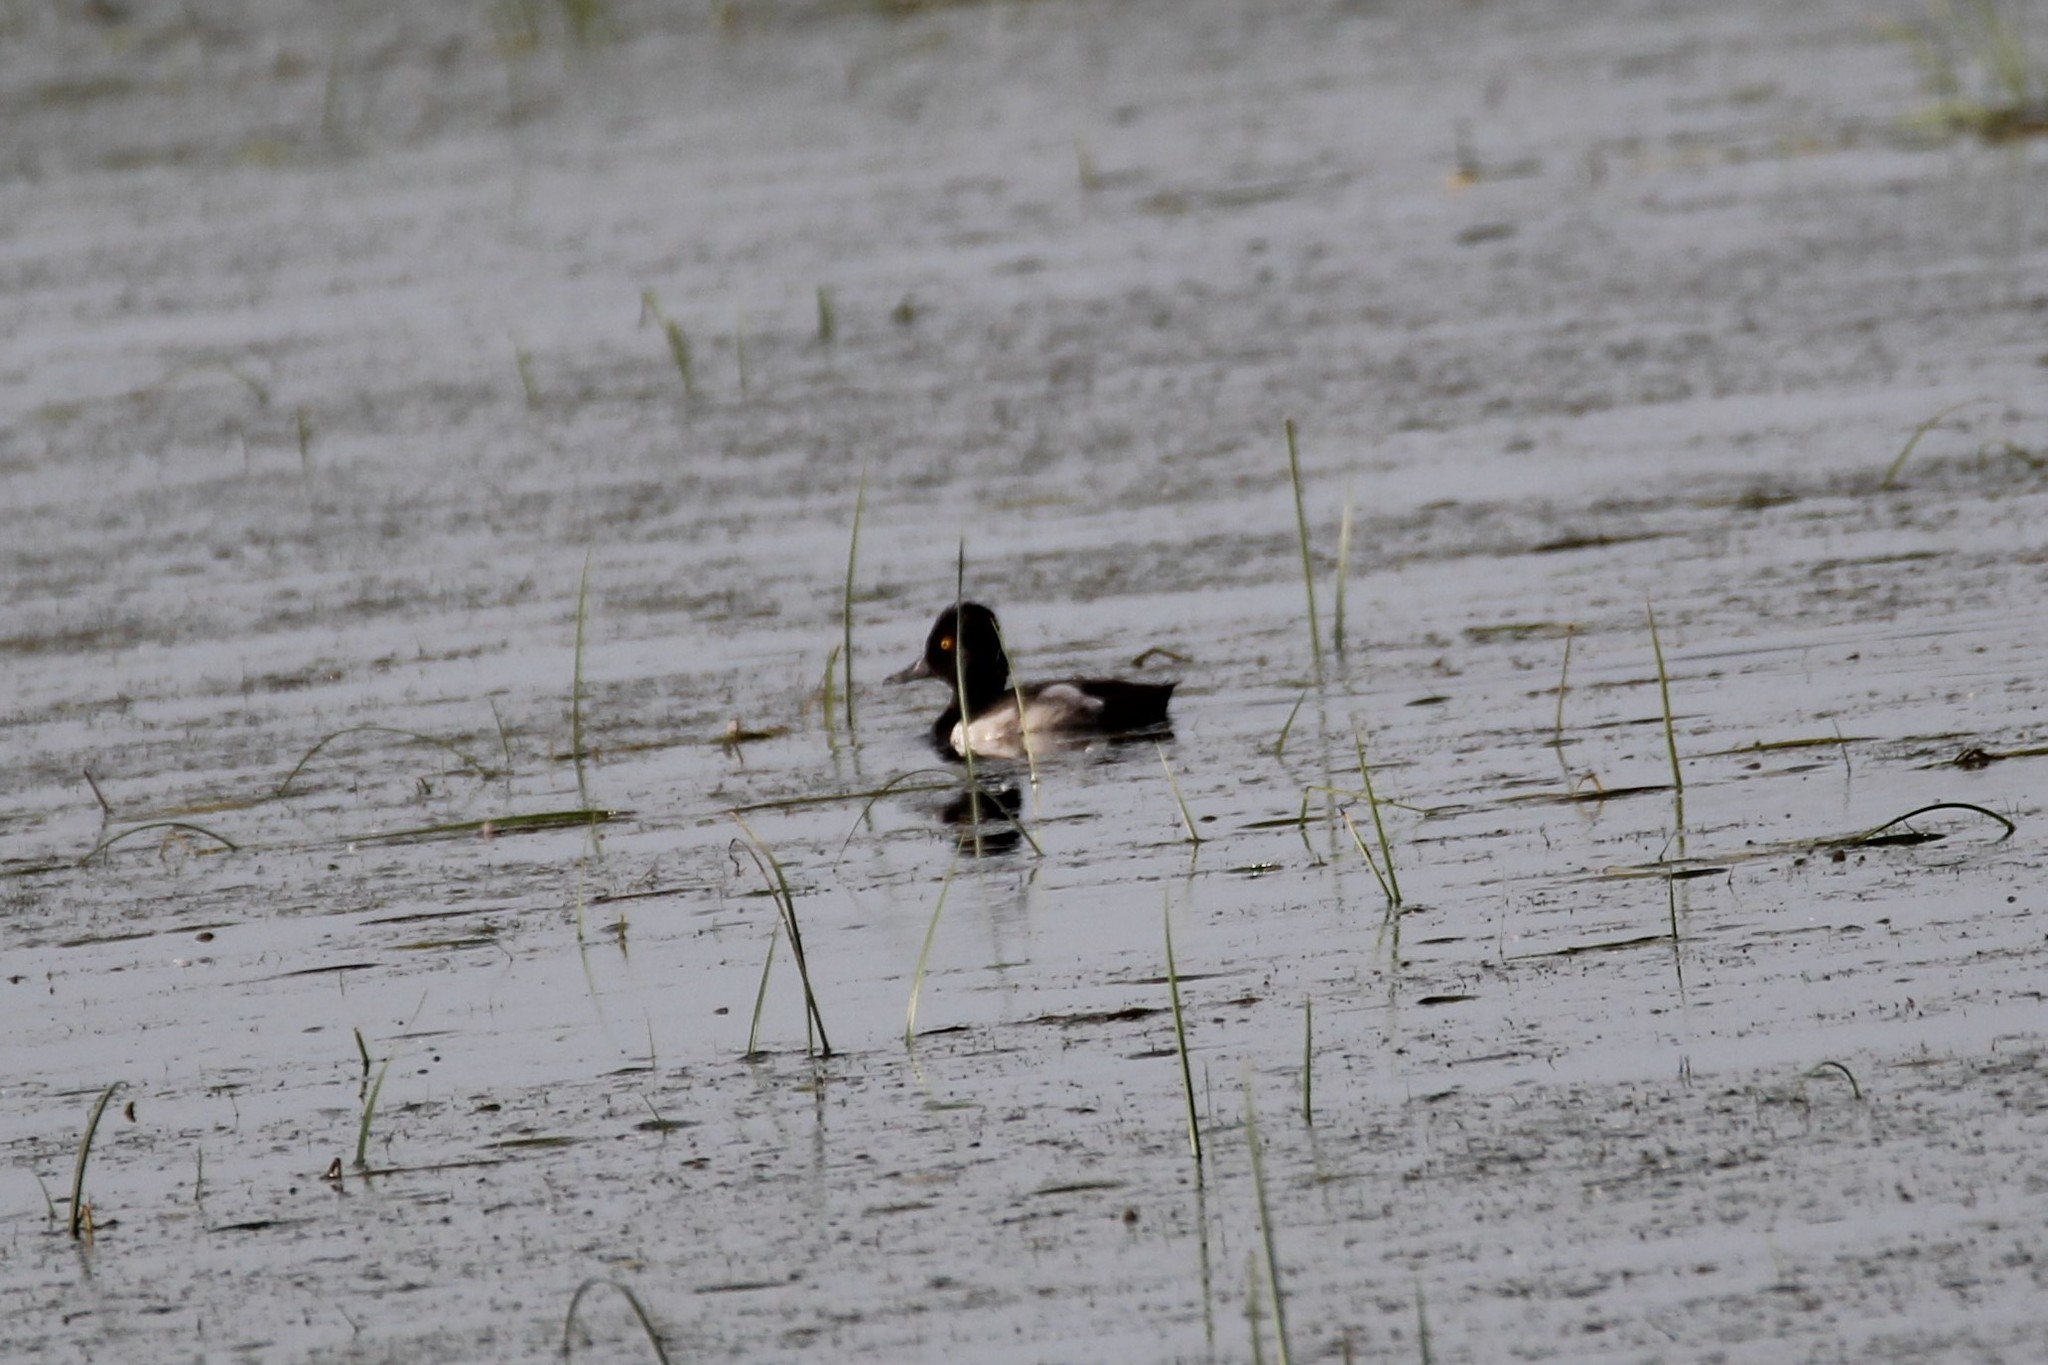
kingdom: Animalia
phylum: Chordata
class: Aves
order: Anseriformes
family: Anatidae
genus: Aythya
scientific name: Aythya collaris
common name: Ring-necked duck
